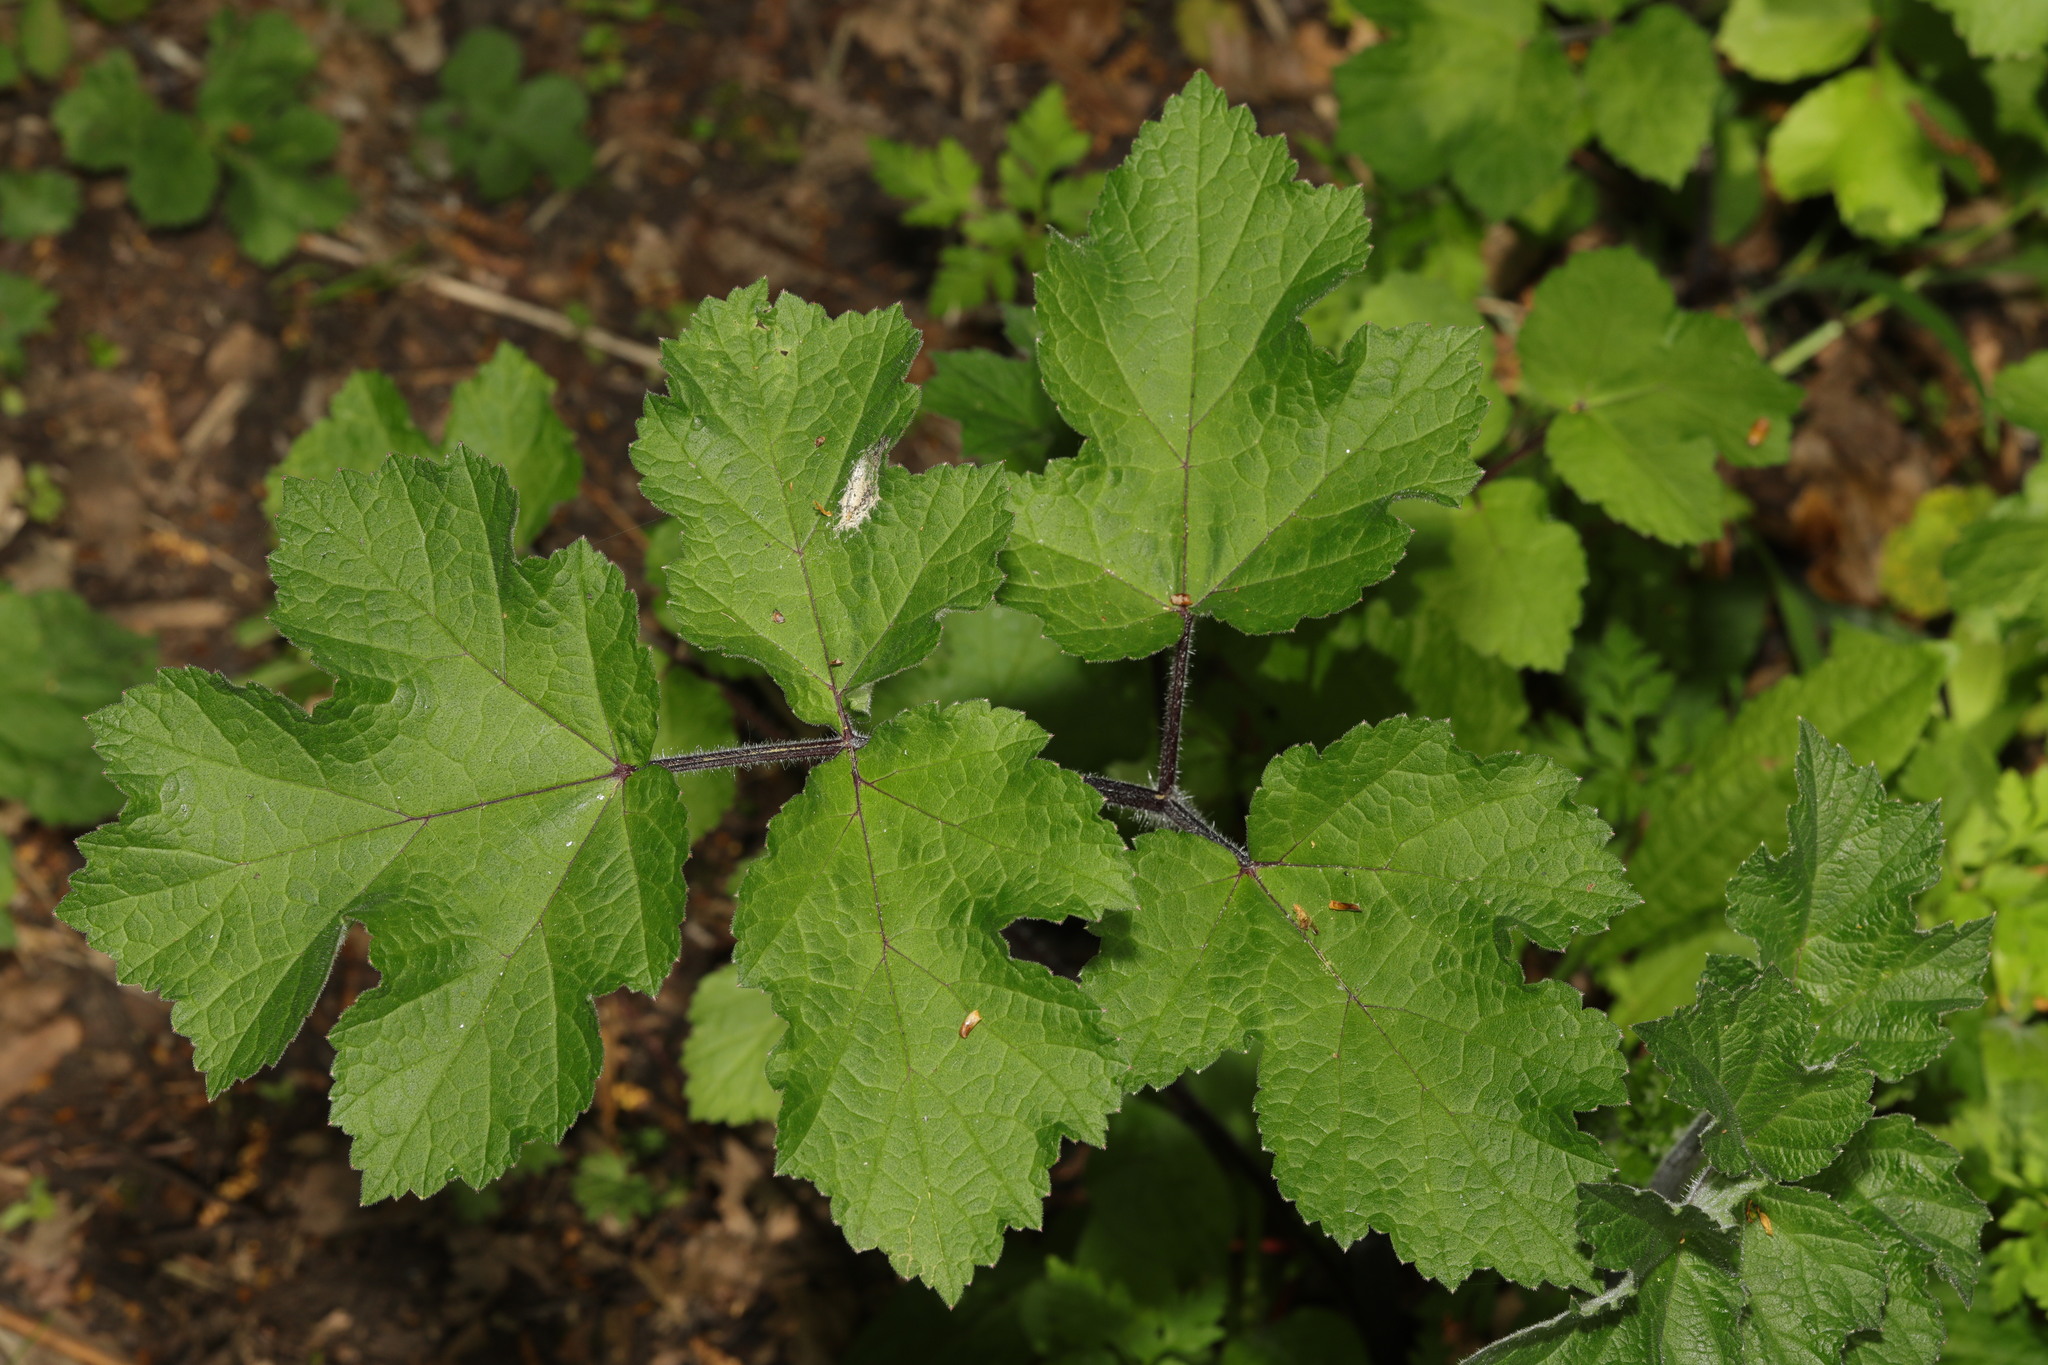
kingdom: Plantae
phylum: Tracheophyta
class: Magnoliopsida
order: Apiales
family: Apiaceae
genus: Heracleum
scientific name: Heracleum sphondylium
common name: Hogweed
